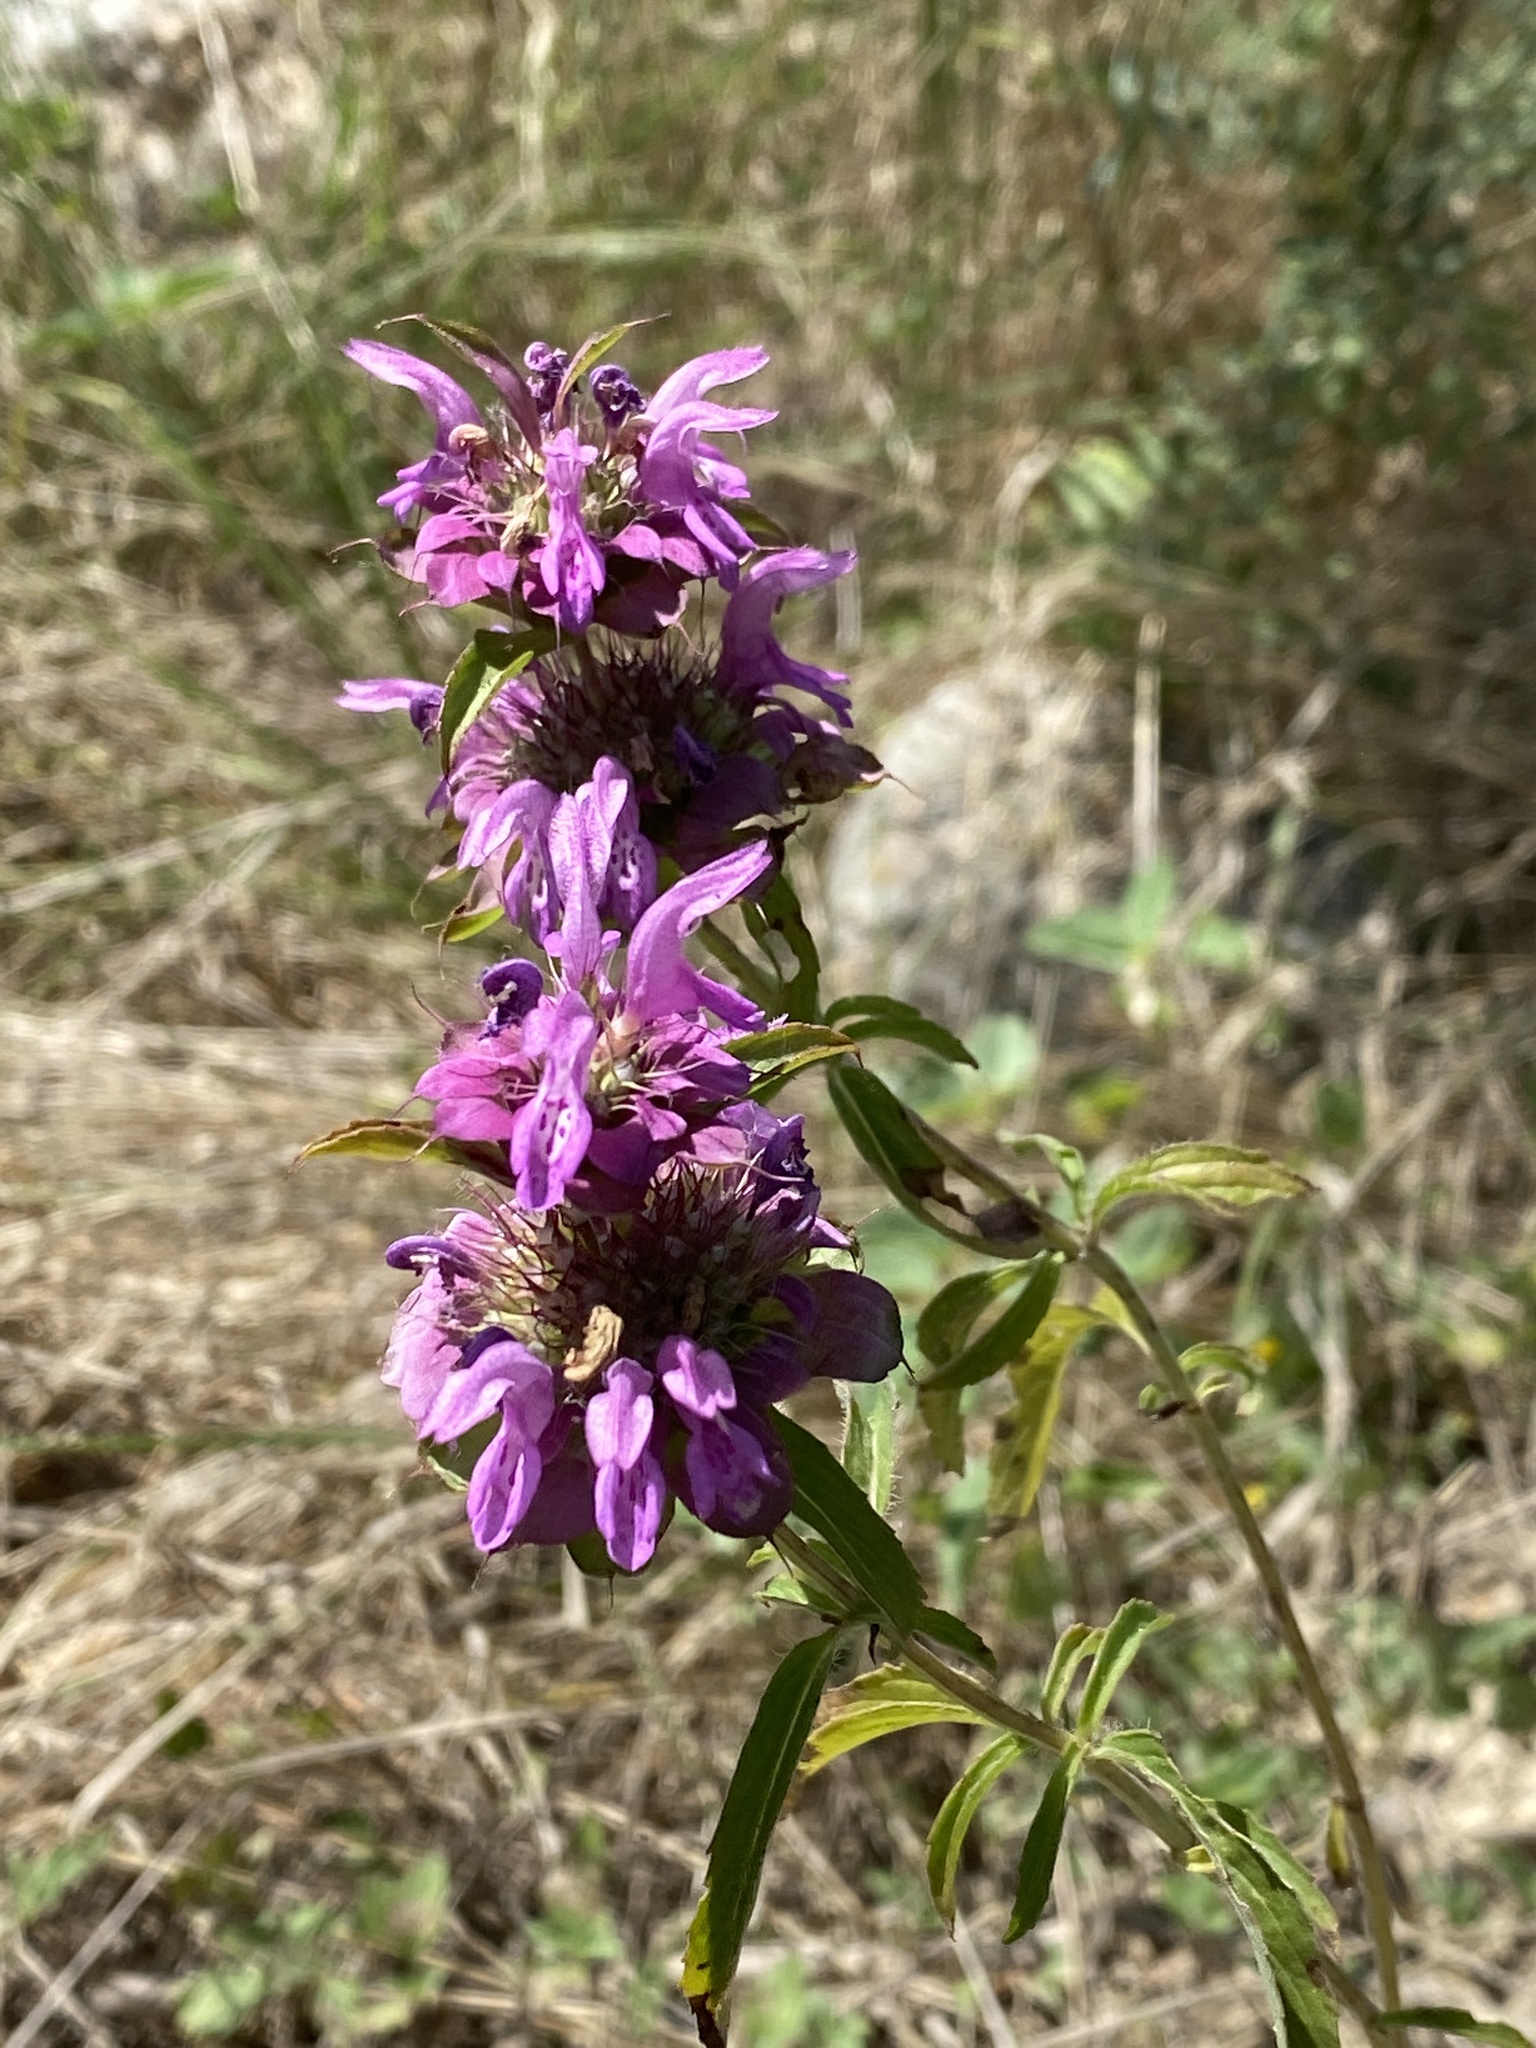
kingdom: Plantae
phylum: Tracheophyta
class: Magnoliopsida
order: Lamiales
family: Lamiaceae
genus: Monarda
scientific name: Monarda citriodora
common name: Lemon beebalm
